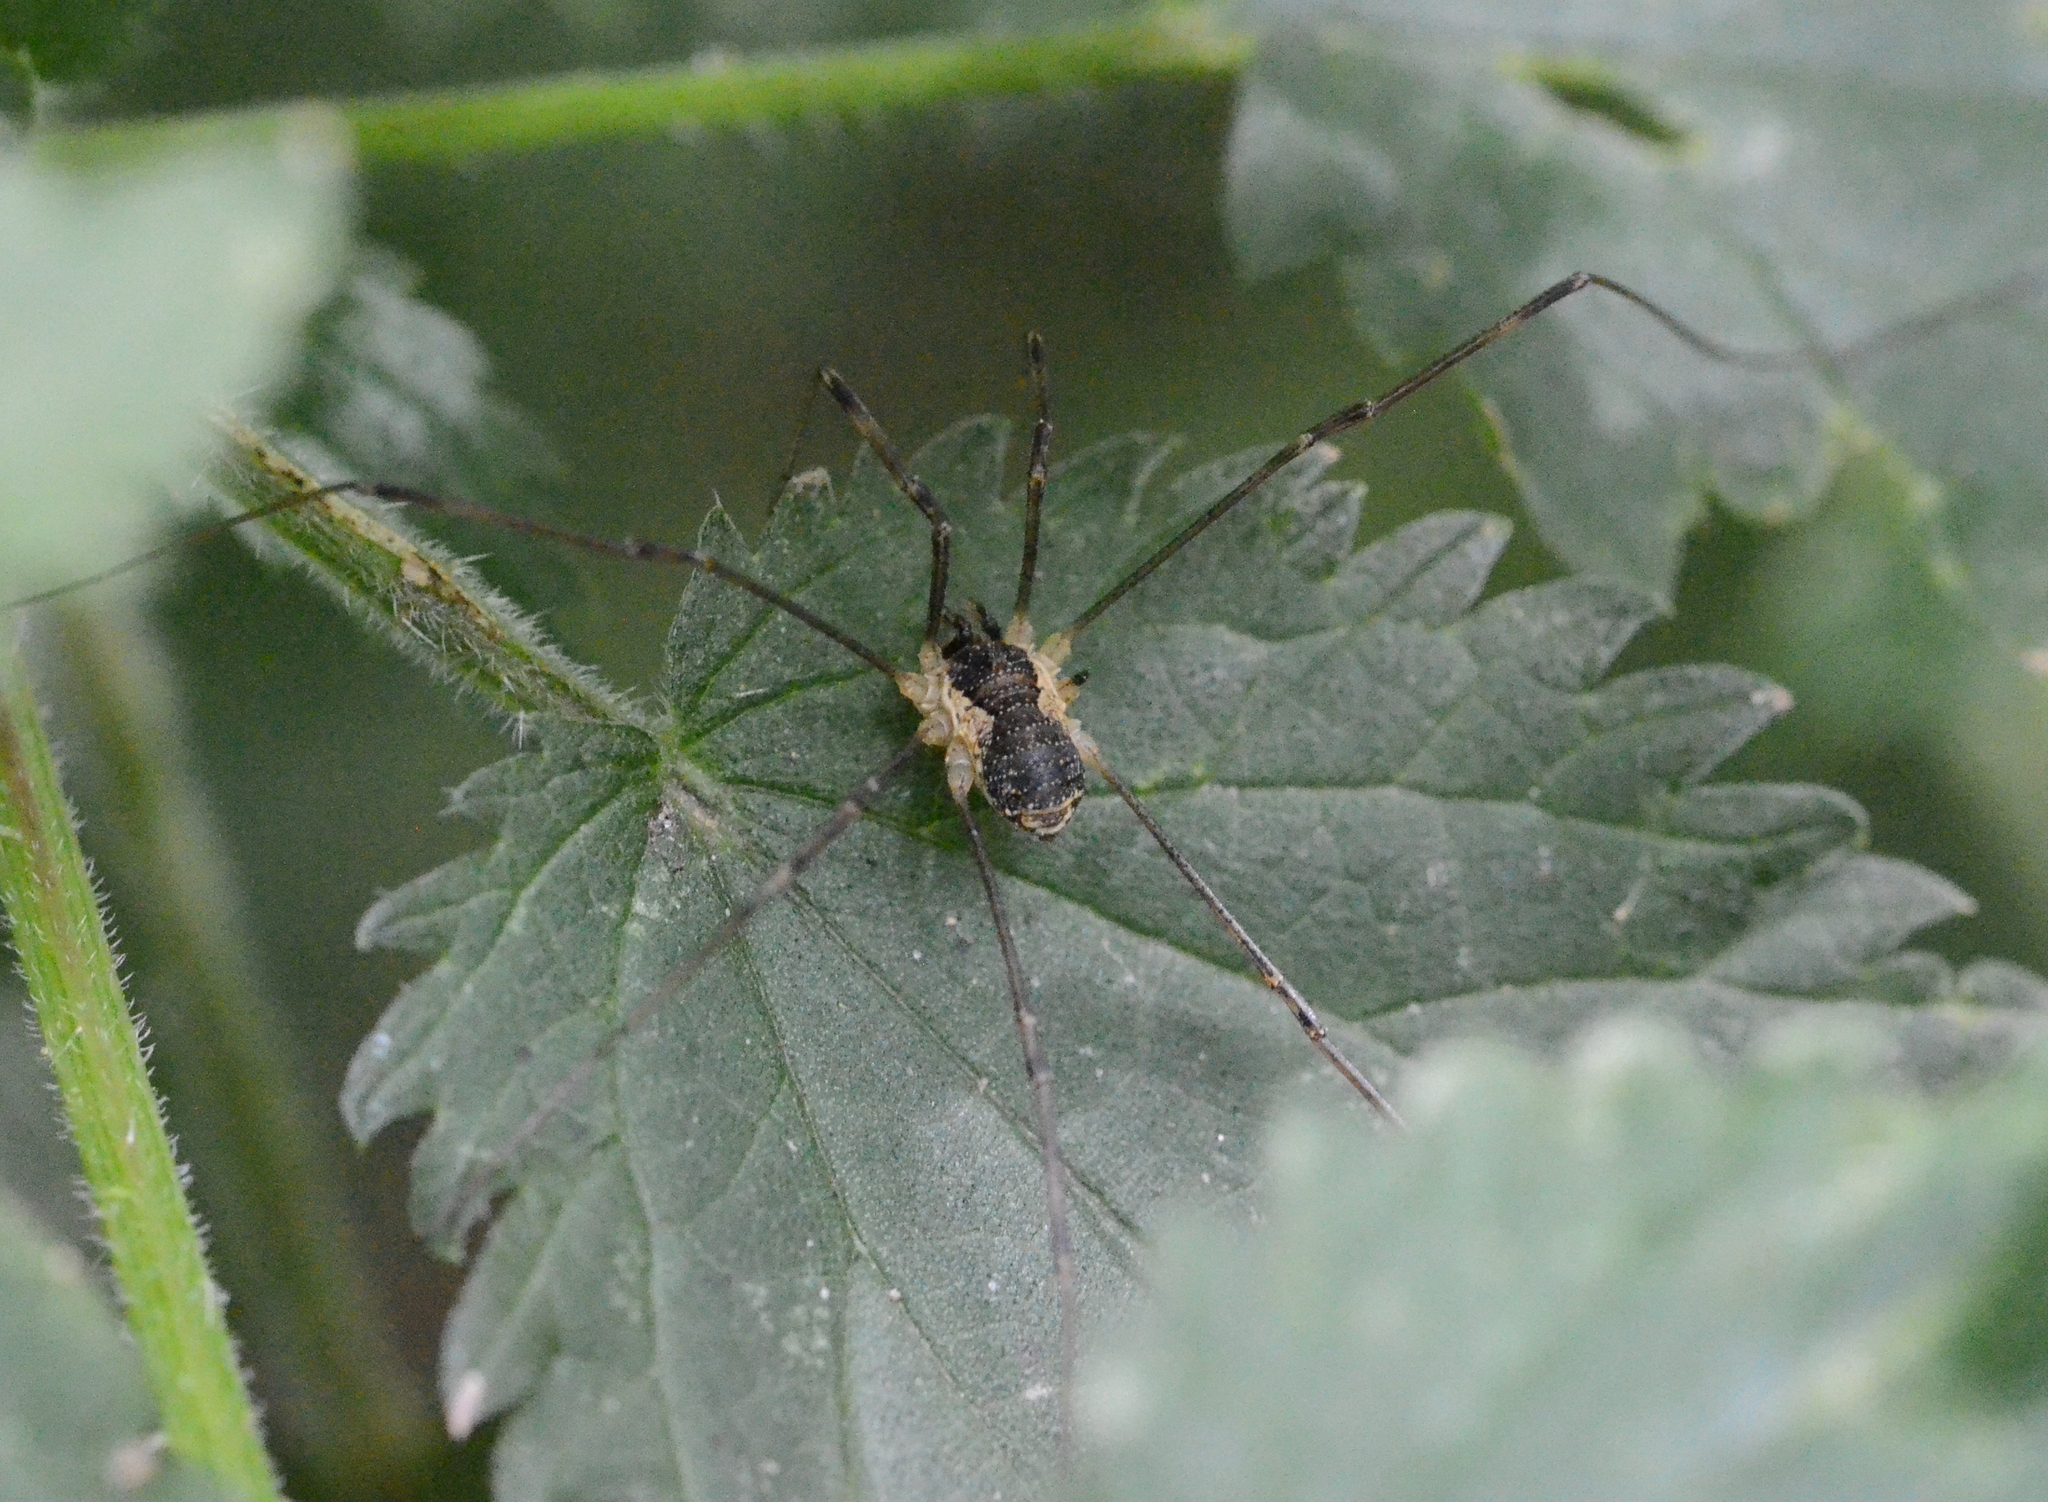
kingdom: Animalia
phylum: Arthropoda
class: Arachnida
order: Opiliones
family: Phalangiidae
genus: Mitopus
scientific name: Mitopus morio
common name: Saddleback harvestman
